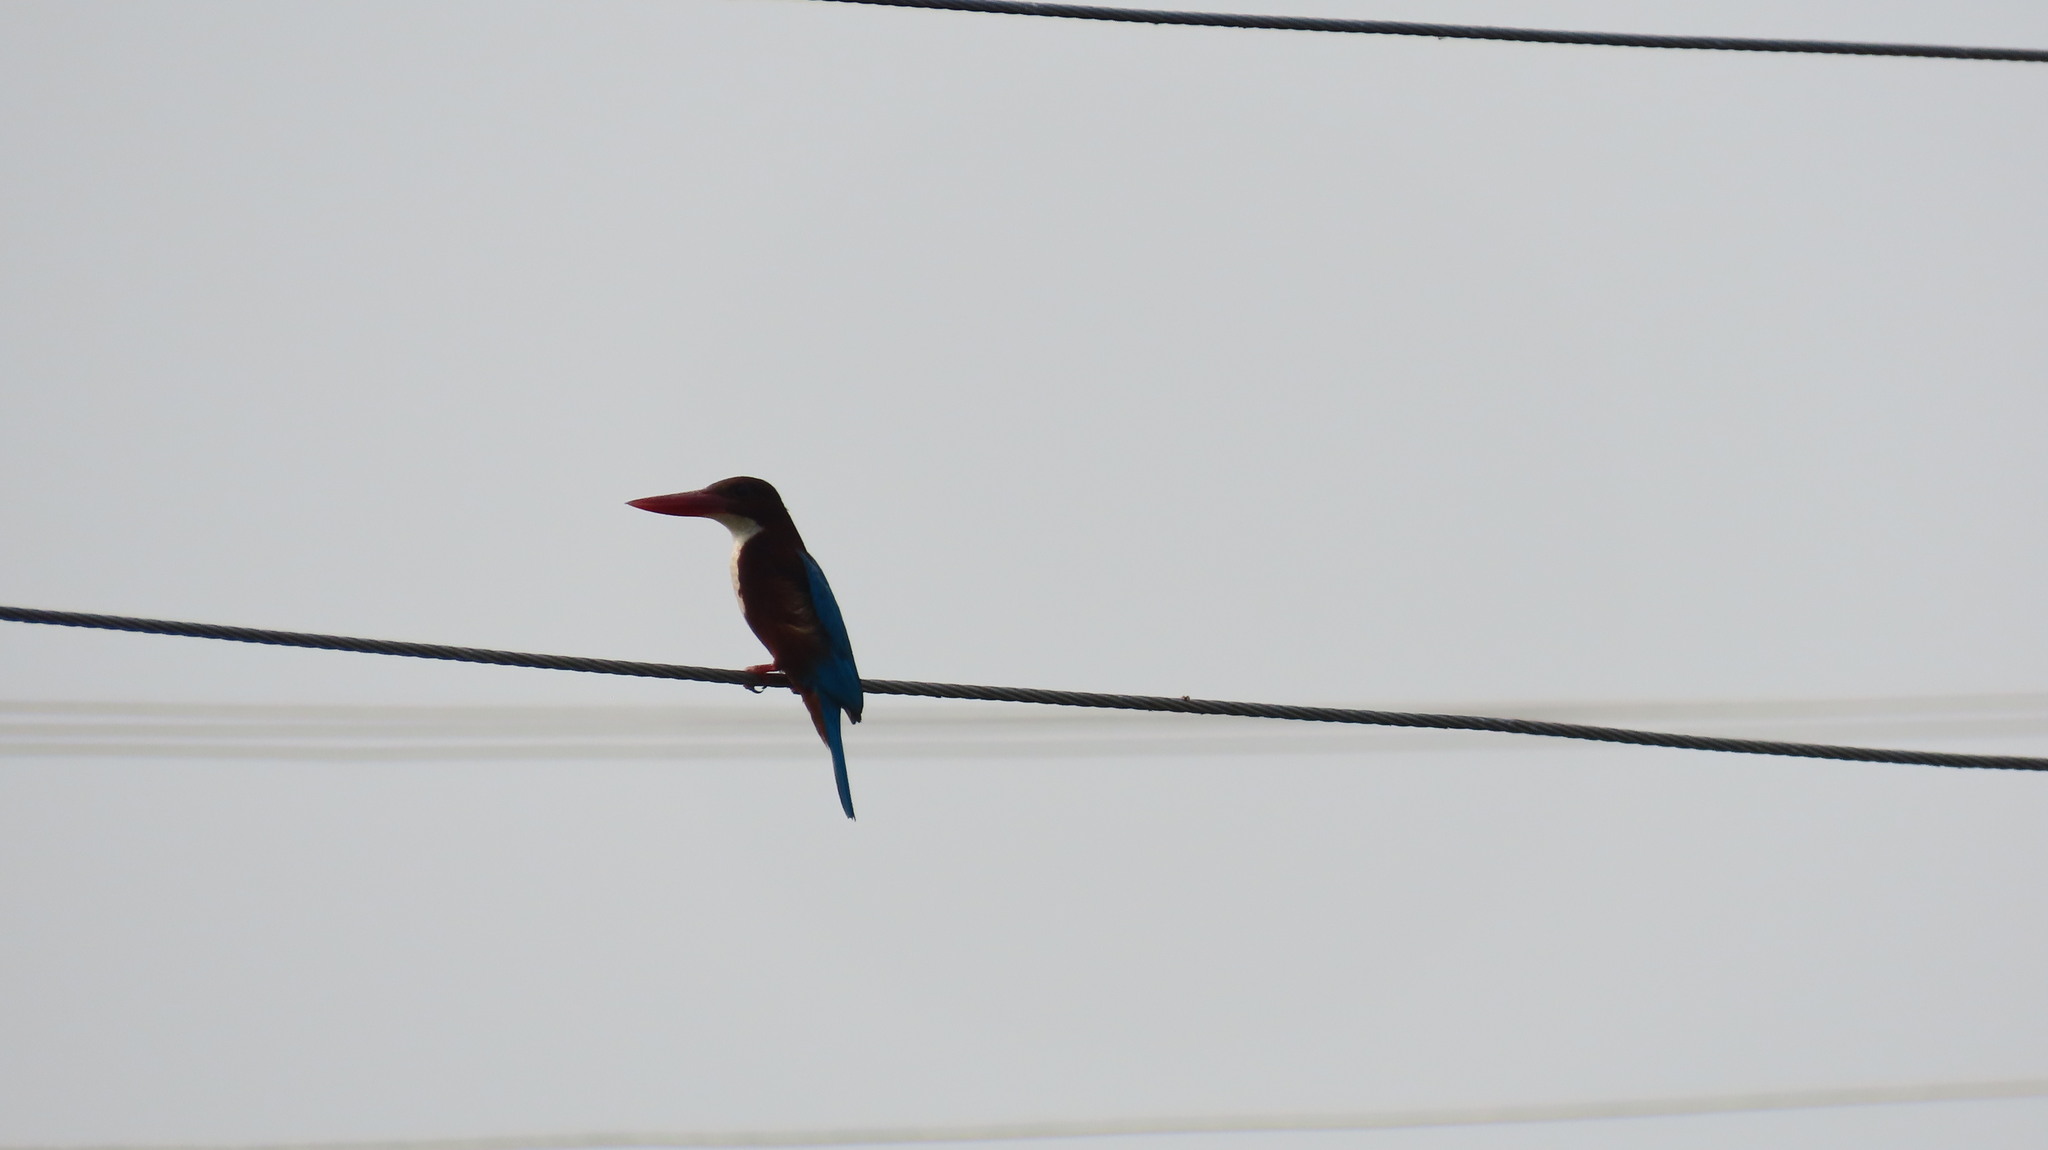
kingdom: Animalia
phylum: Chordata
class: Aves
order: Coraciiformes
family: Alcedinidae
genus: Halcyon
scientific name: Halcyon smyrnensis
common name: White-throated kingfisher
